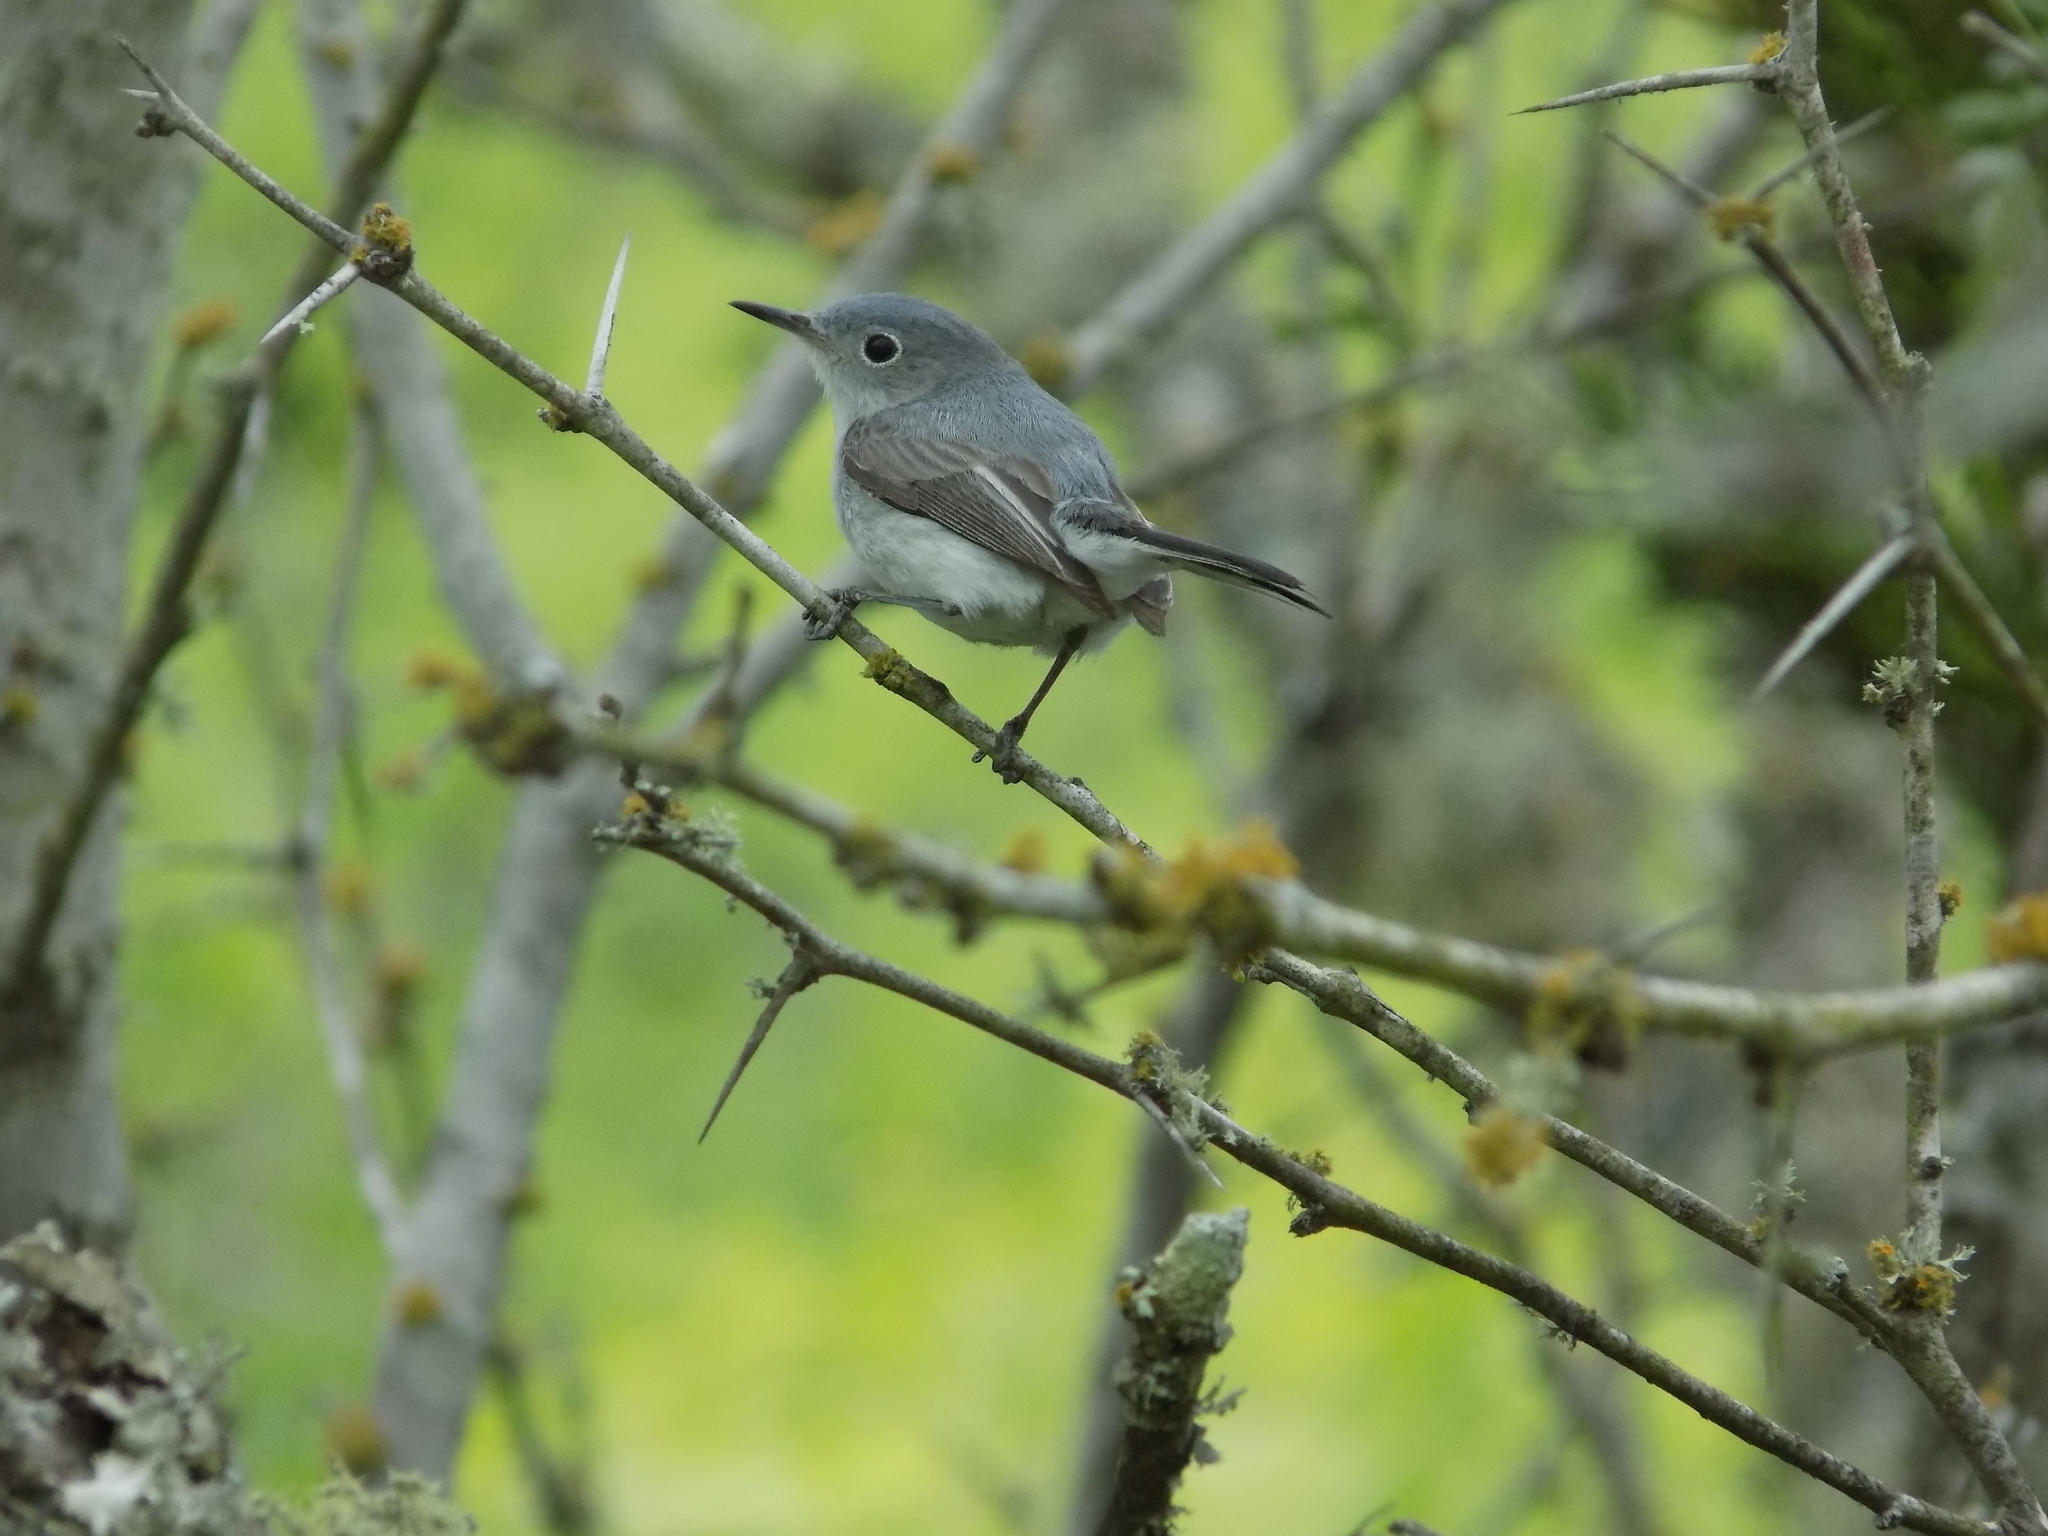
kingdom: Animalia
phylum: Chordata
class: Aves
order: Passeriformes
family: Polioptilidae
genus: Polioptila
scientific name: Polioptila caerulea
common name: Blue-gray gnatcatcher
